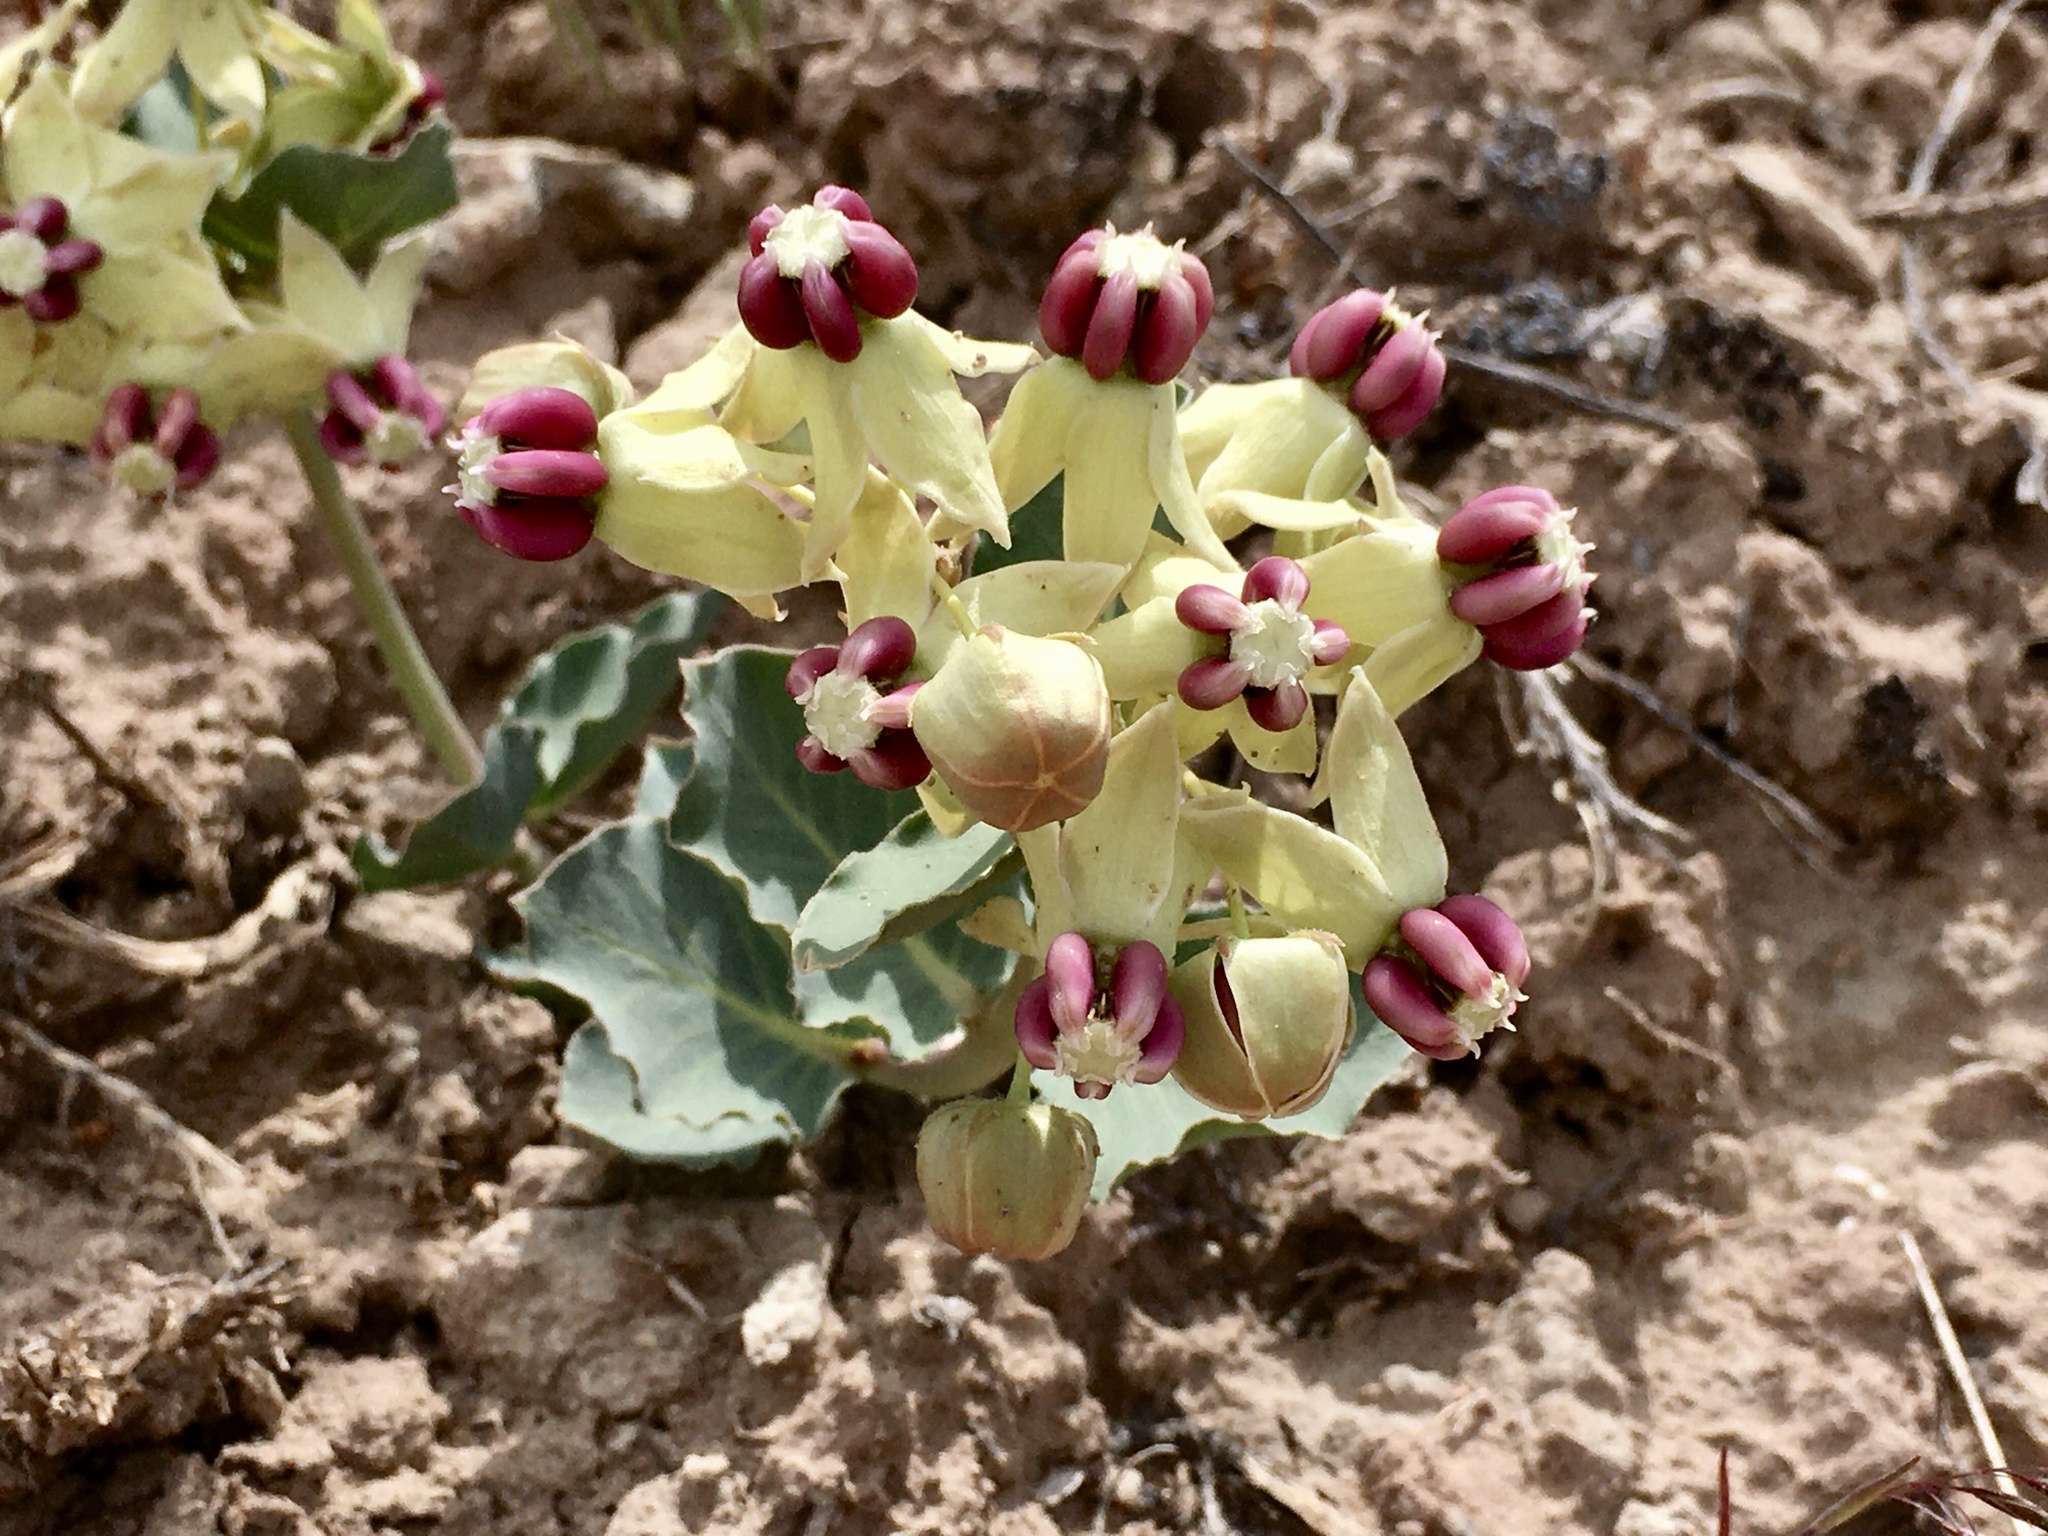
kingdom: Plantae
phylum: Tracheophyta
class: Magnoliopsida
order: Gentianales
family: Apocynaceae
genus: Asclepias
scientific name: Asclepias cryptoceras
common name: Humboldt mountains milkweed
